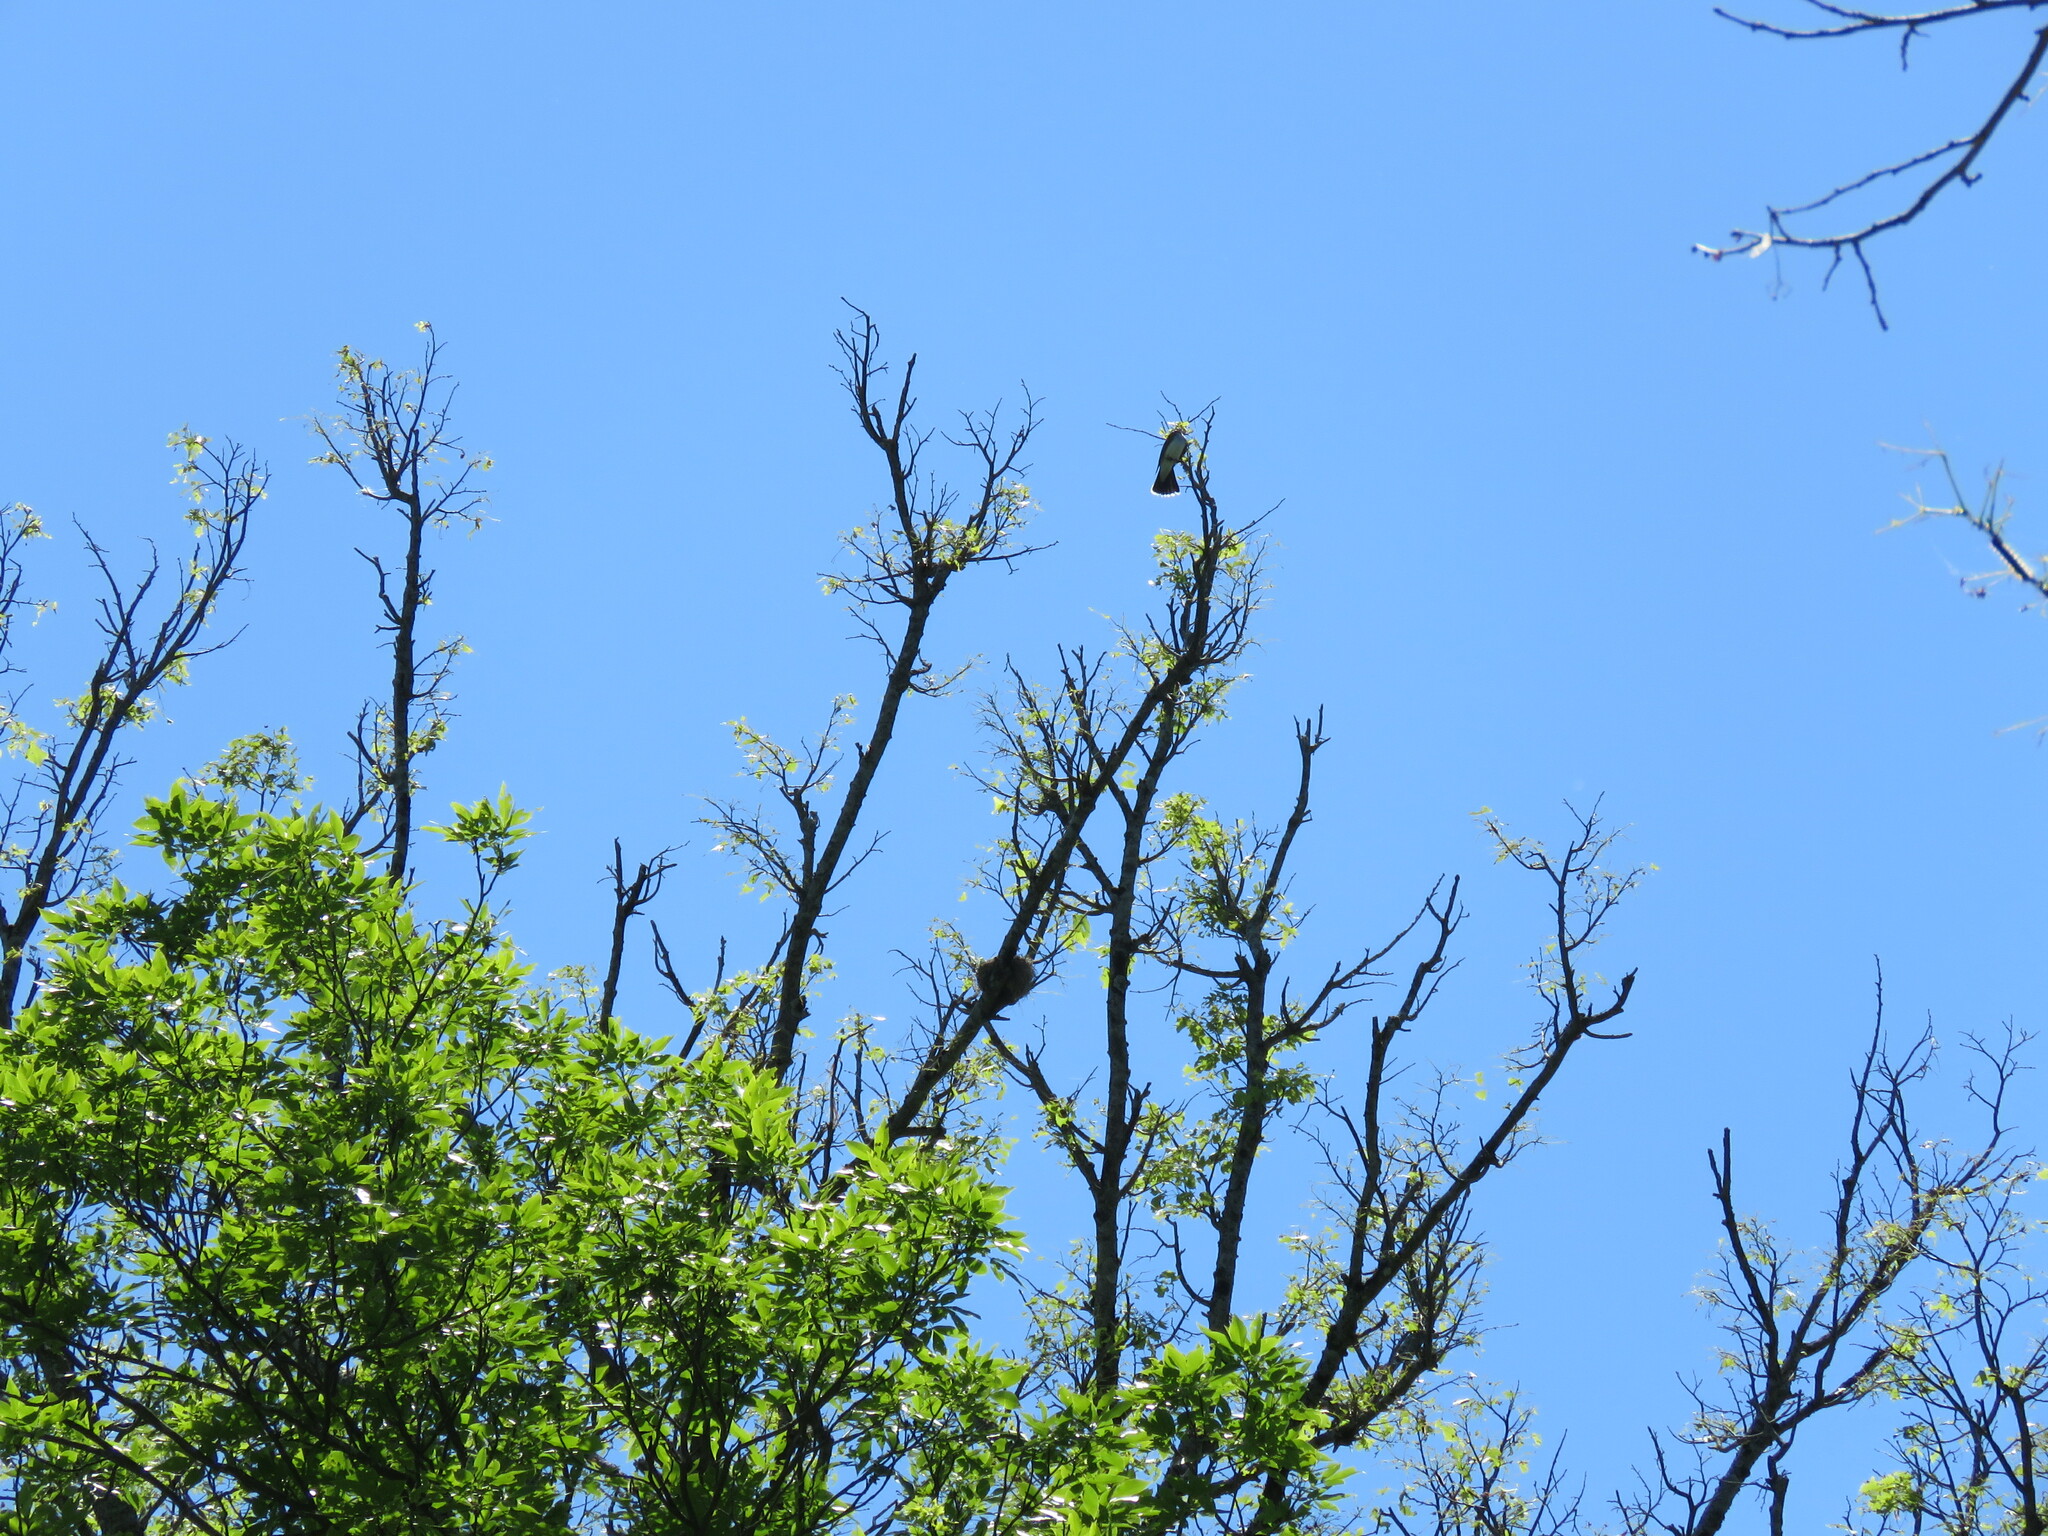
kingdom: Animalia
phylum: Chordata
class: Aves
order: Passeriformes
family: Tyrannidae
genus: Tyrannus
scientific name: Tyrannus tyrannus
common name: Eastern kingbird
